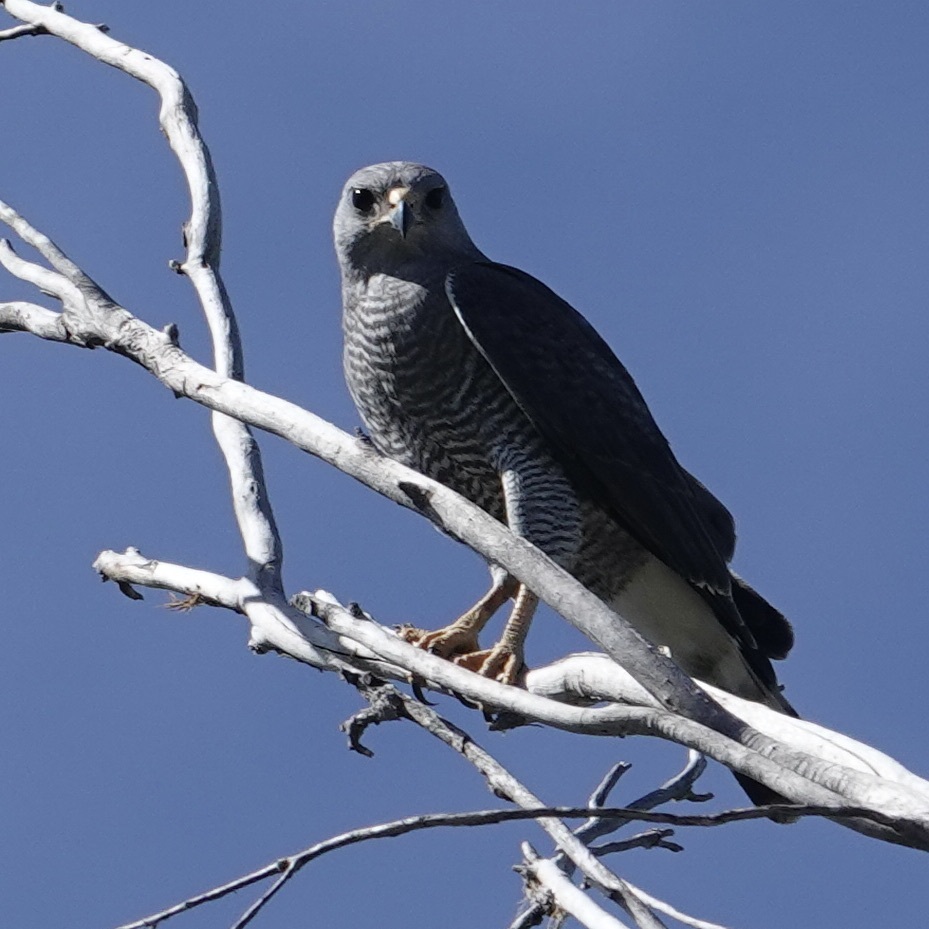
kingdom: Animalia
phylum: Chordata
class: Aves
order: Accipitriformes
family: Accipitridae
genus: Buteo
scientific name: Buteo nitidus
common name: Grey-lined hawk
